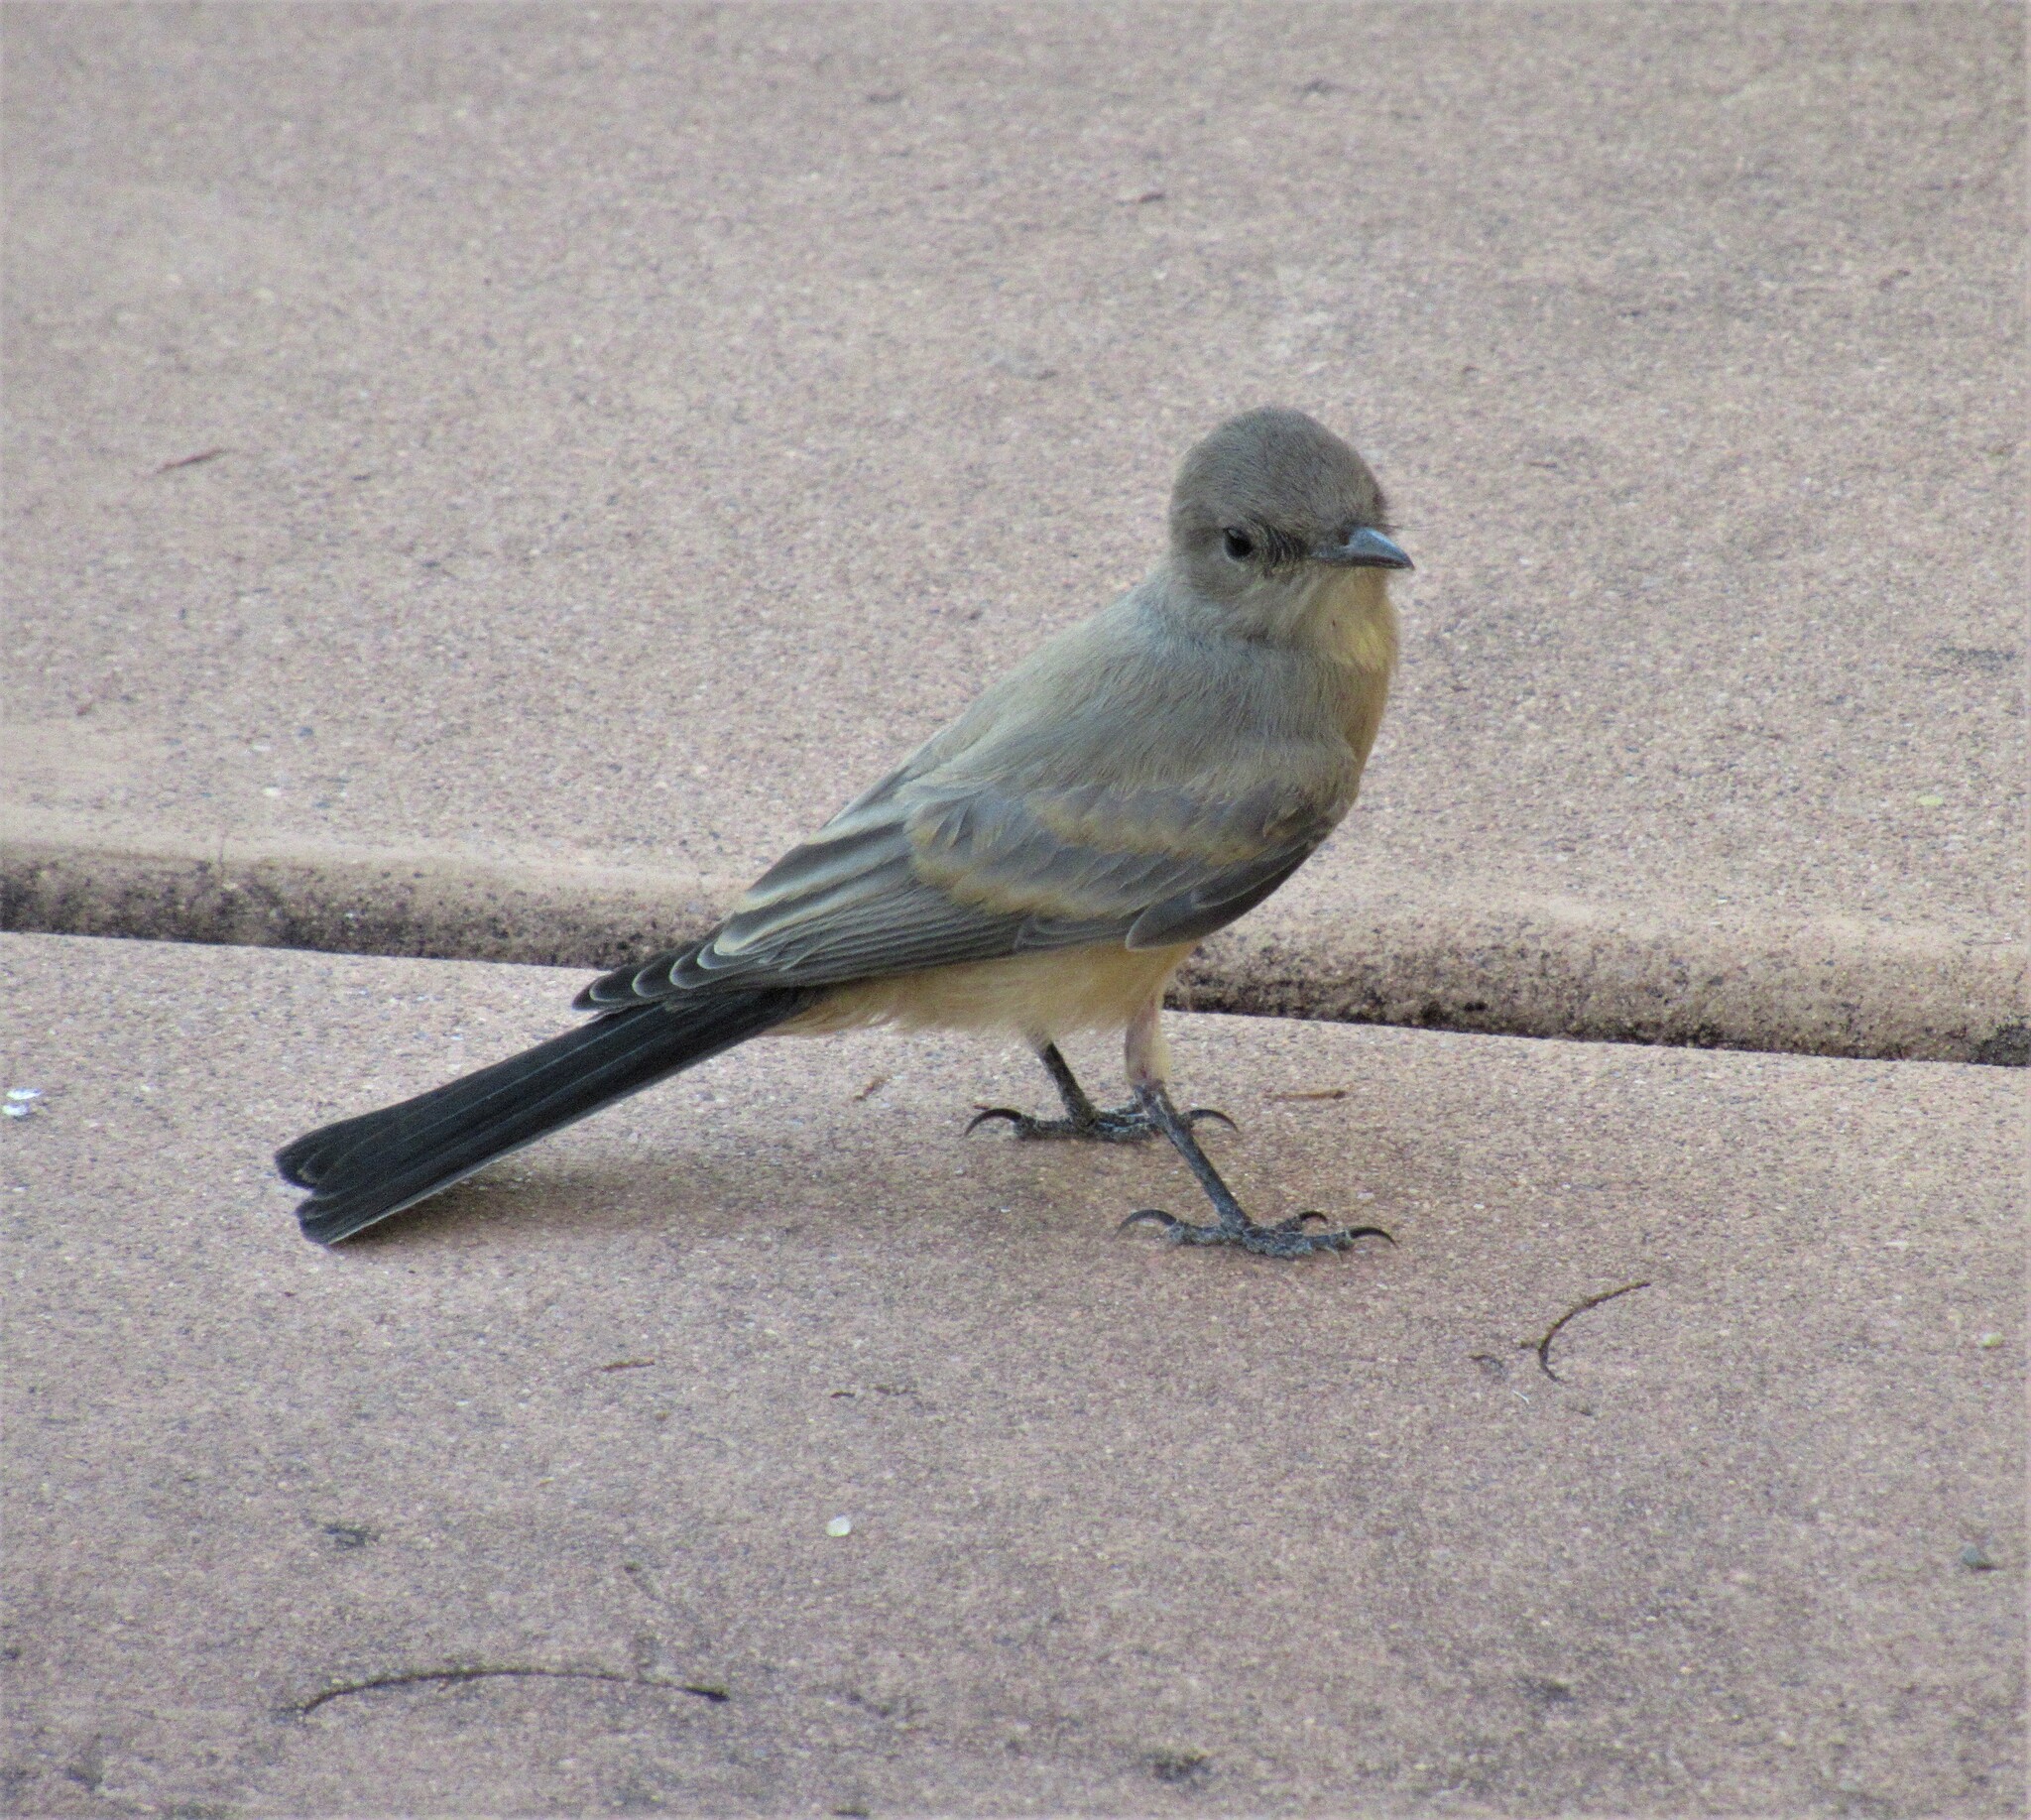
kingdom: Animalia
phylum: Chordata
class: Aves
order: Passeriformes
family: Tyrannidae
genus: Sayornis
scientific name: Sayornis saya
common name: Say's phoebe
